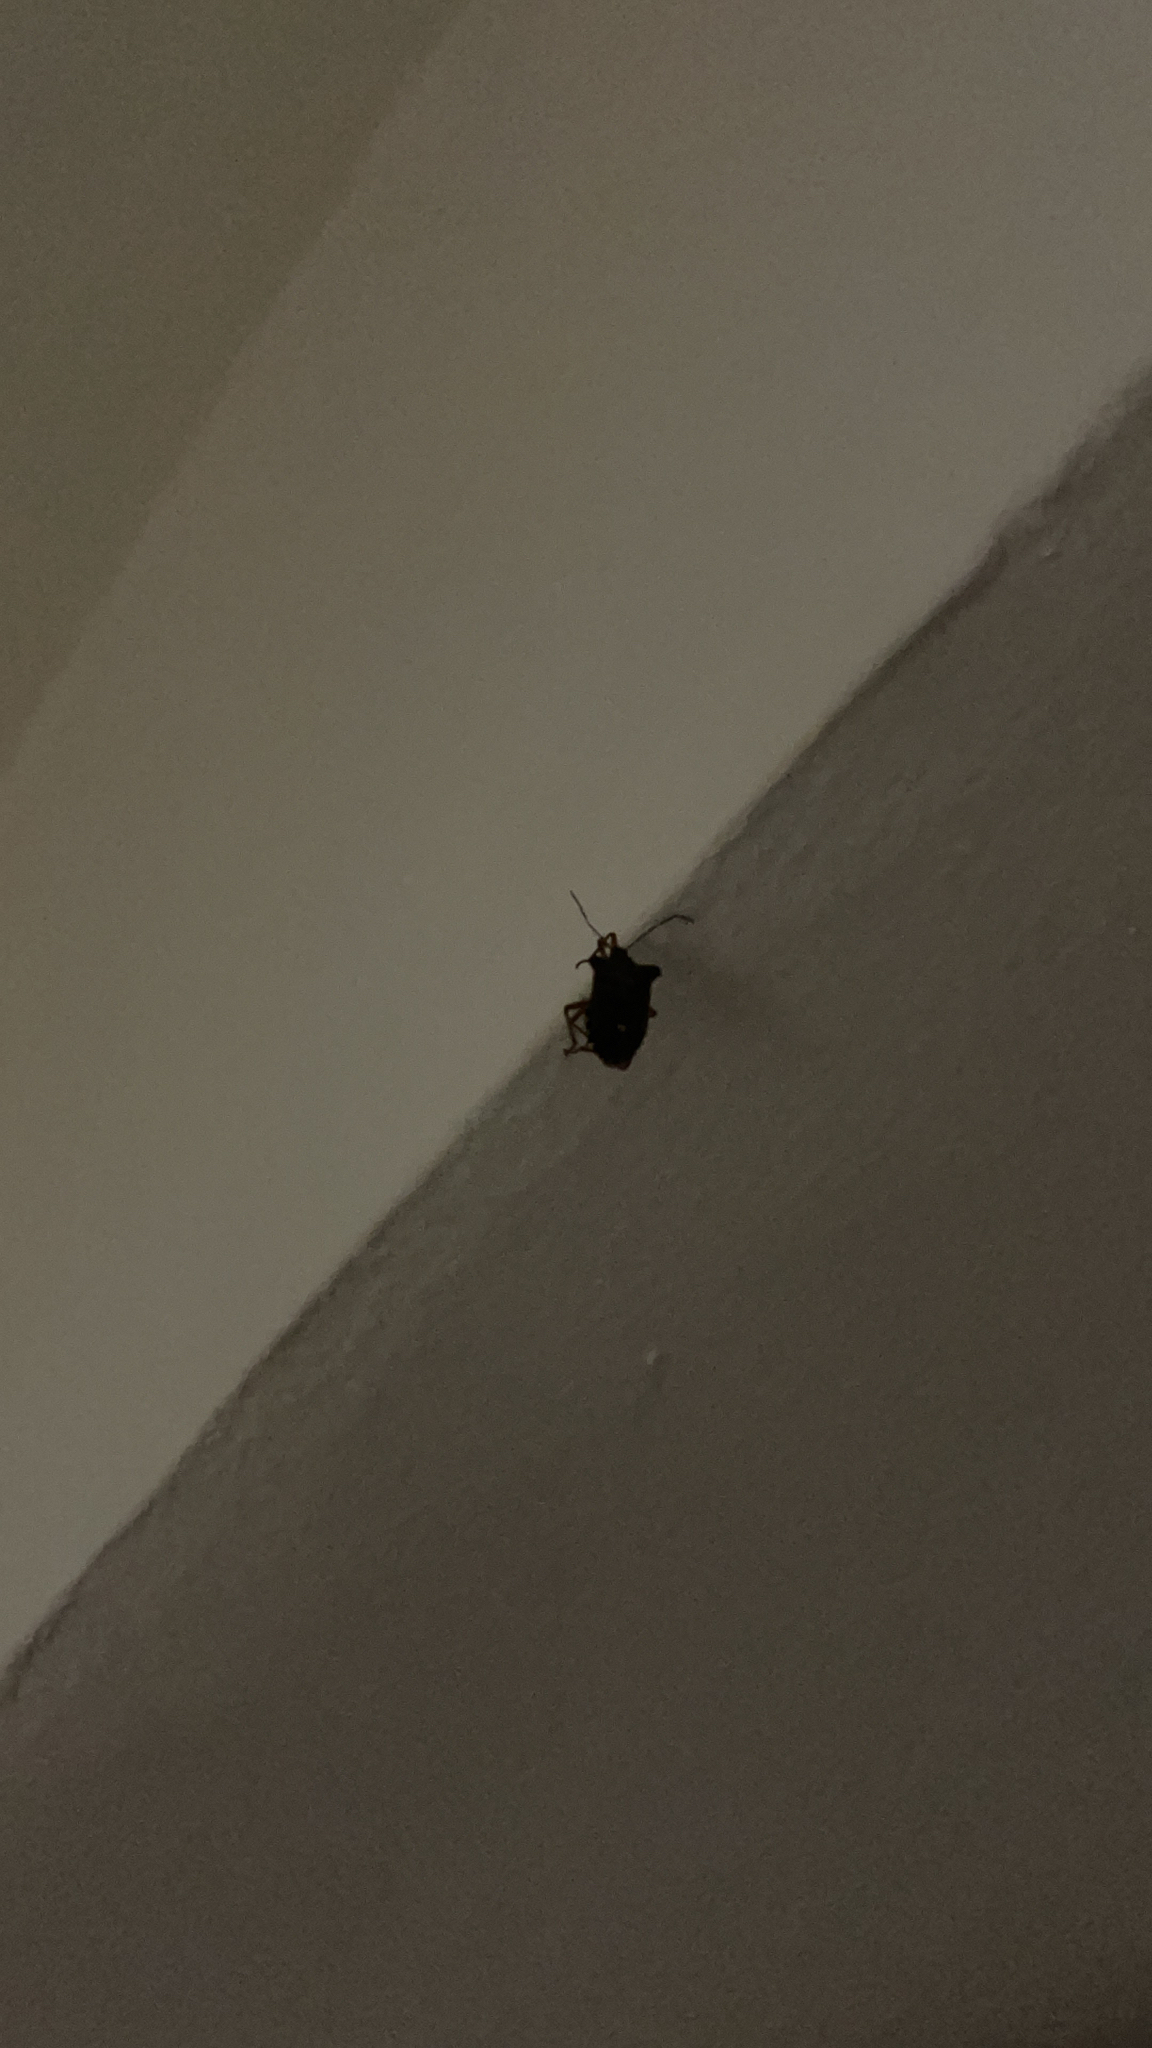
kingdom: Animalia
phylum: Arthropoda
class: Insecta
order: Hemiptera
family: Pentatomidae
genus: Pentatoma
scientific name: Pentatoma rufipes
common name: Forest bug
